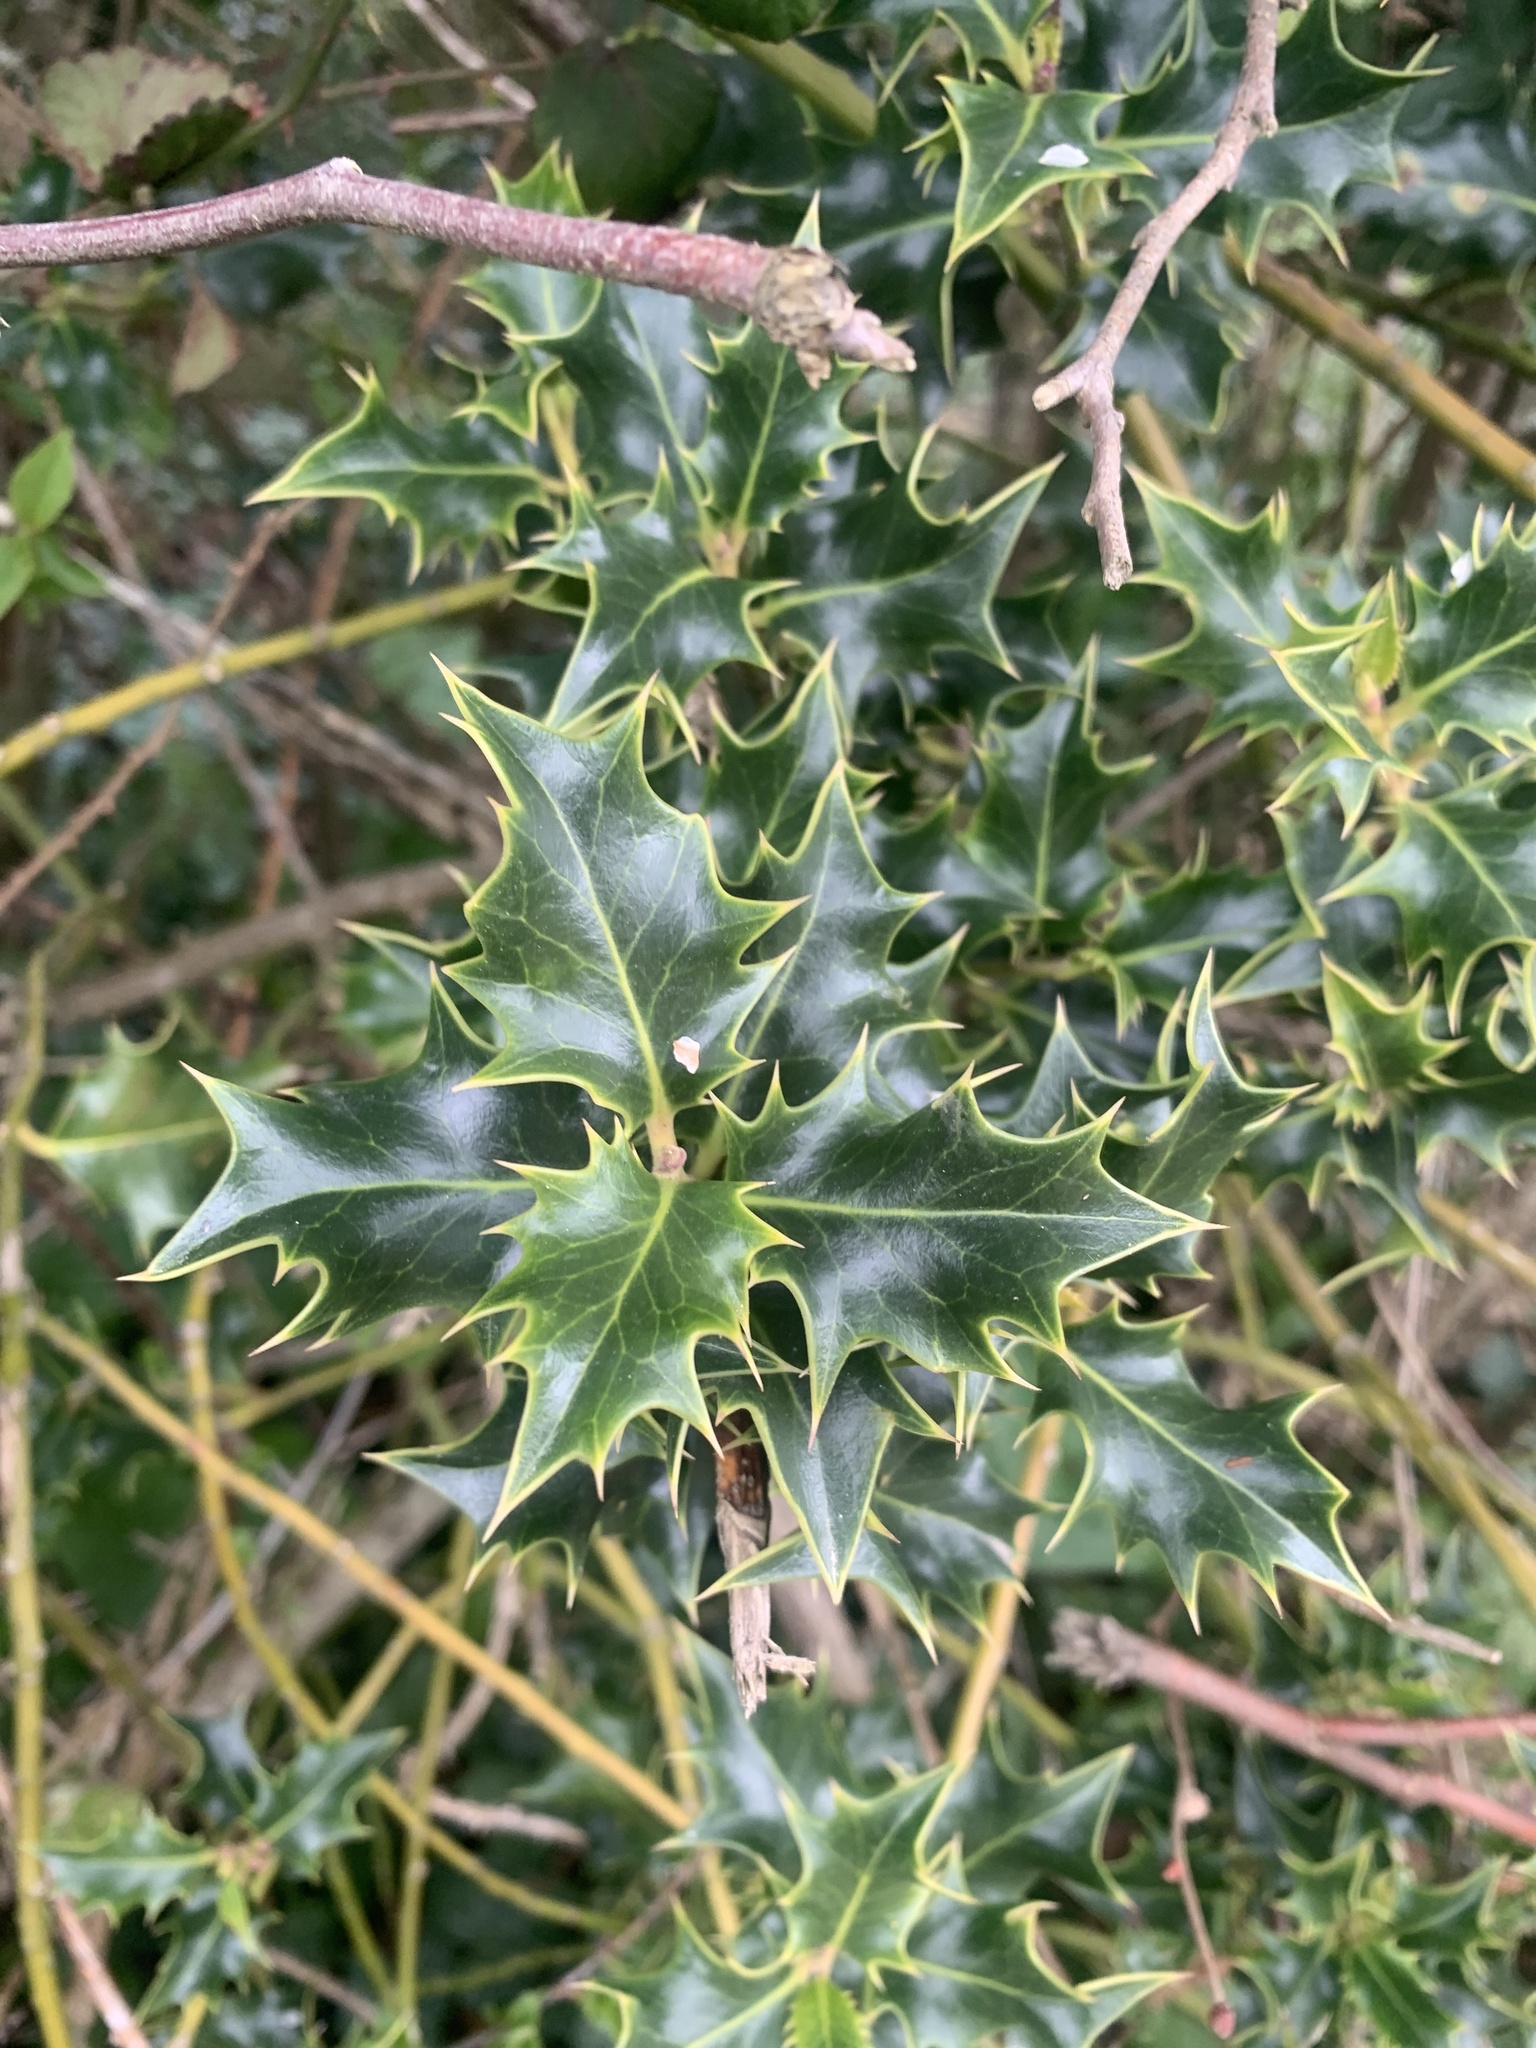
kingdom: Plantae
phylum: Tracheophyta
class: Magnoliopsida
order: Aquifoliales
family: Aquifoliaceae
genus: Ilex
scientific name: Ilex aquifolium
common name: English holly
